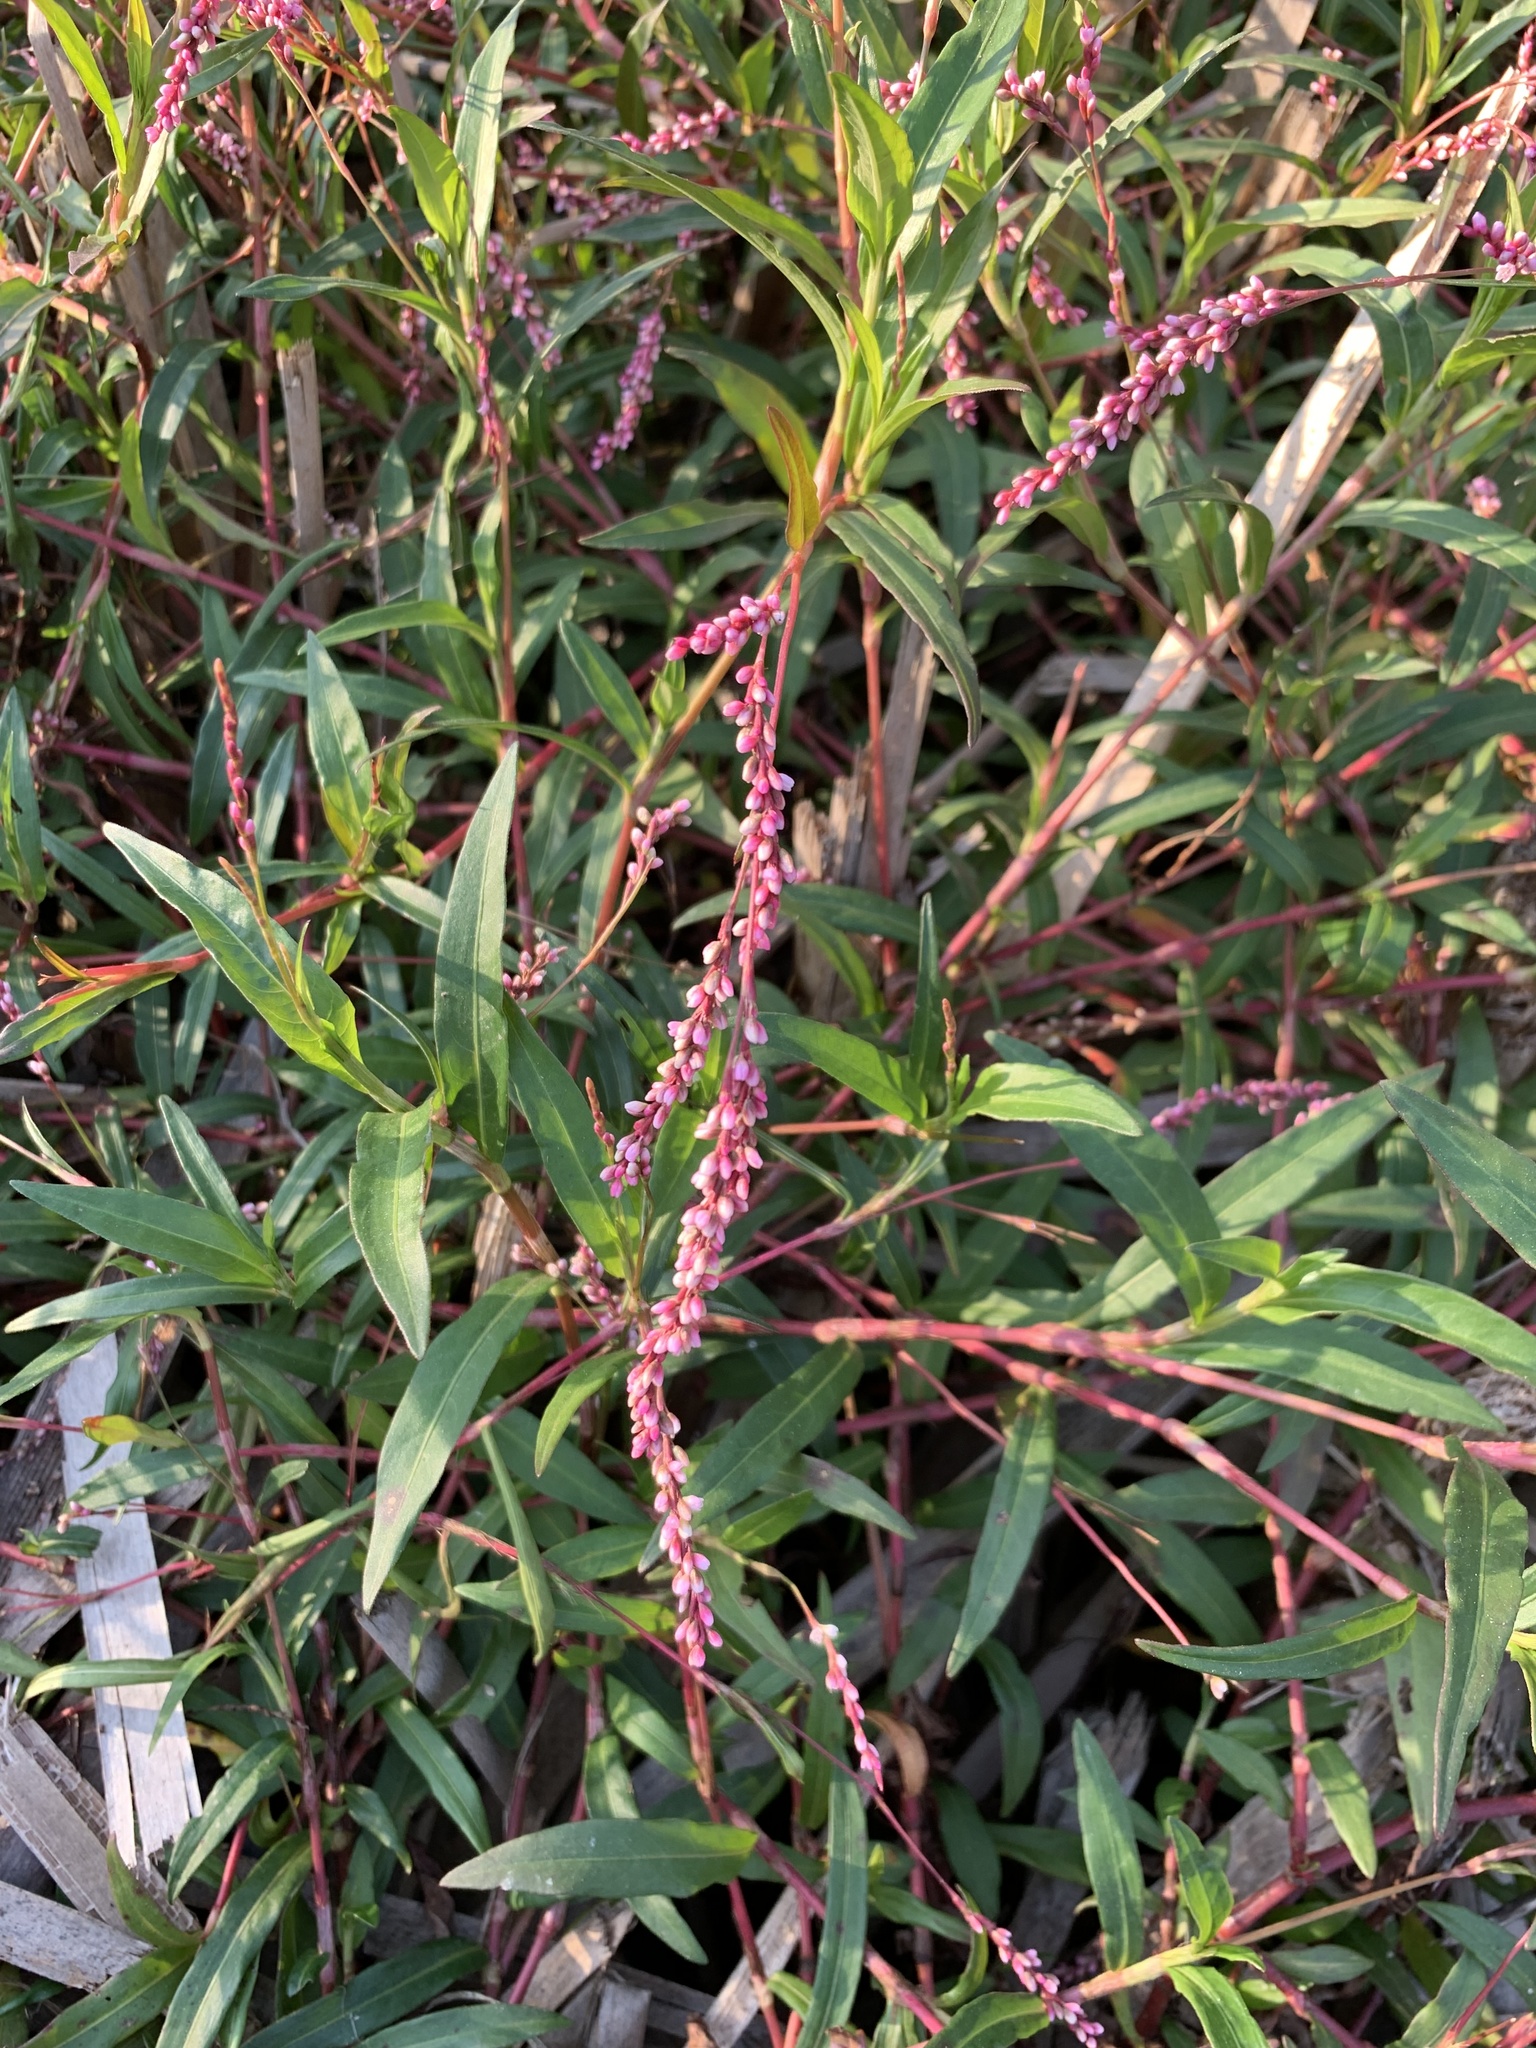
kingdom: Plantae
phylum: Tracheophyta
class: Magnoliopsida
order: Caryophyllales
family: Polygonaceae
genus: Persicaria
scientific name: Persicaria decipiens
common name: Willow-weed
